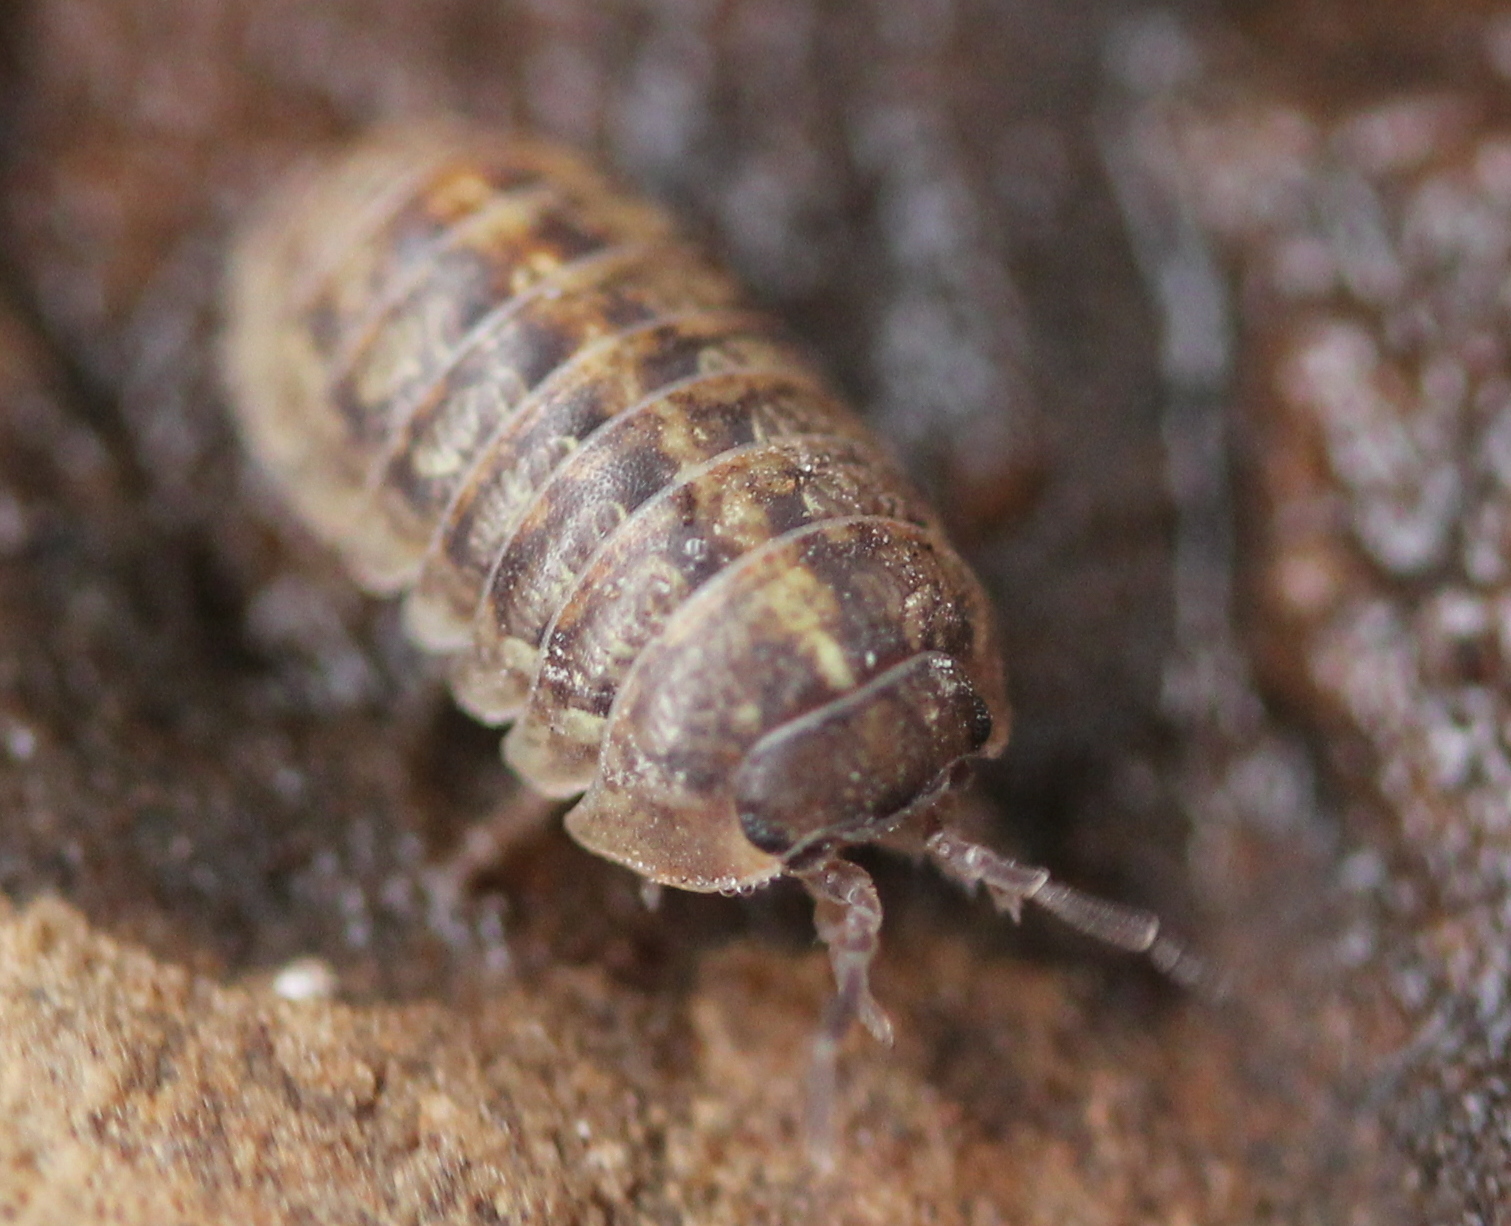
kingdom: Animalia
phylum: Arthropoda
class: Malacostraca
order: Isopoda
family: Armadillidiidae
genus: Armadillidium
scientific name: Armadillidium vulgare
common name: Common pill woodlouse
